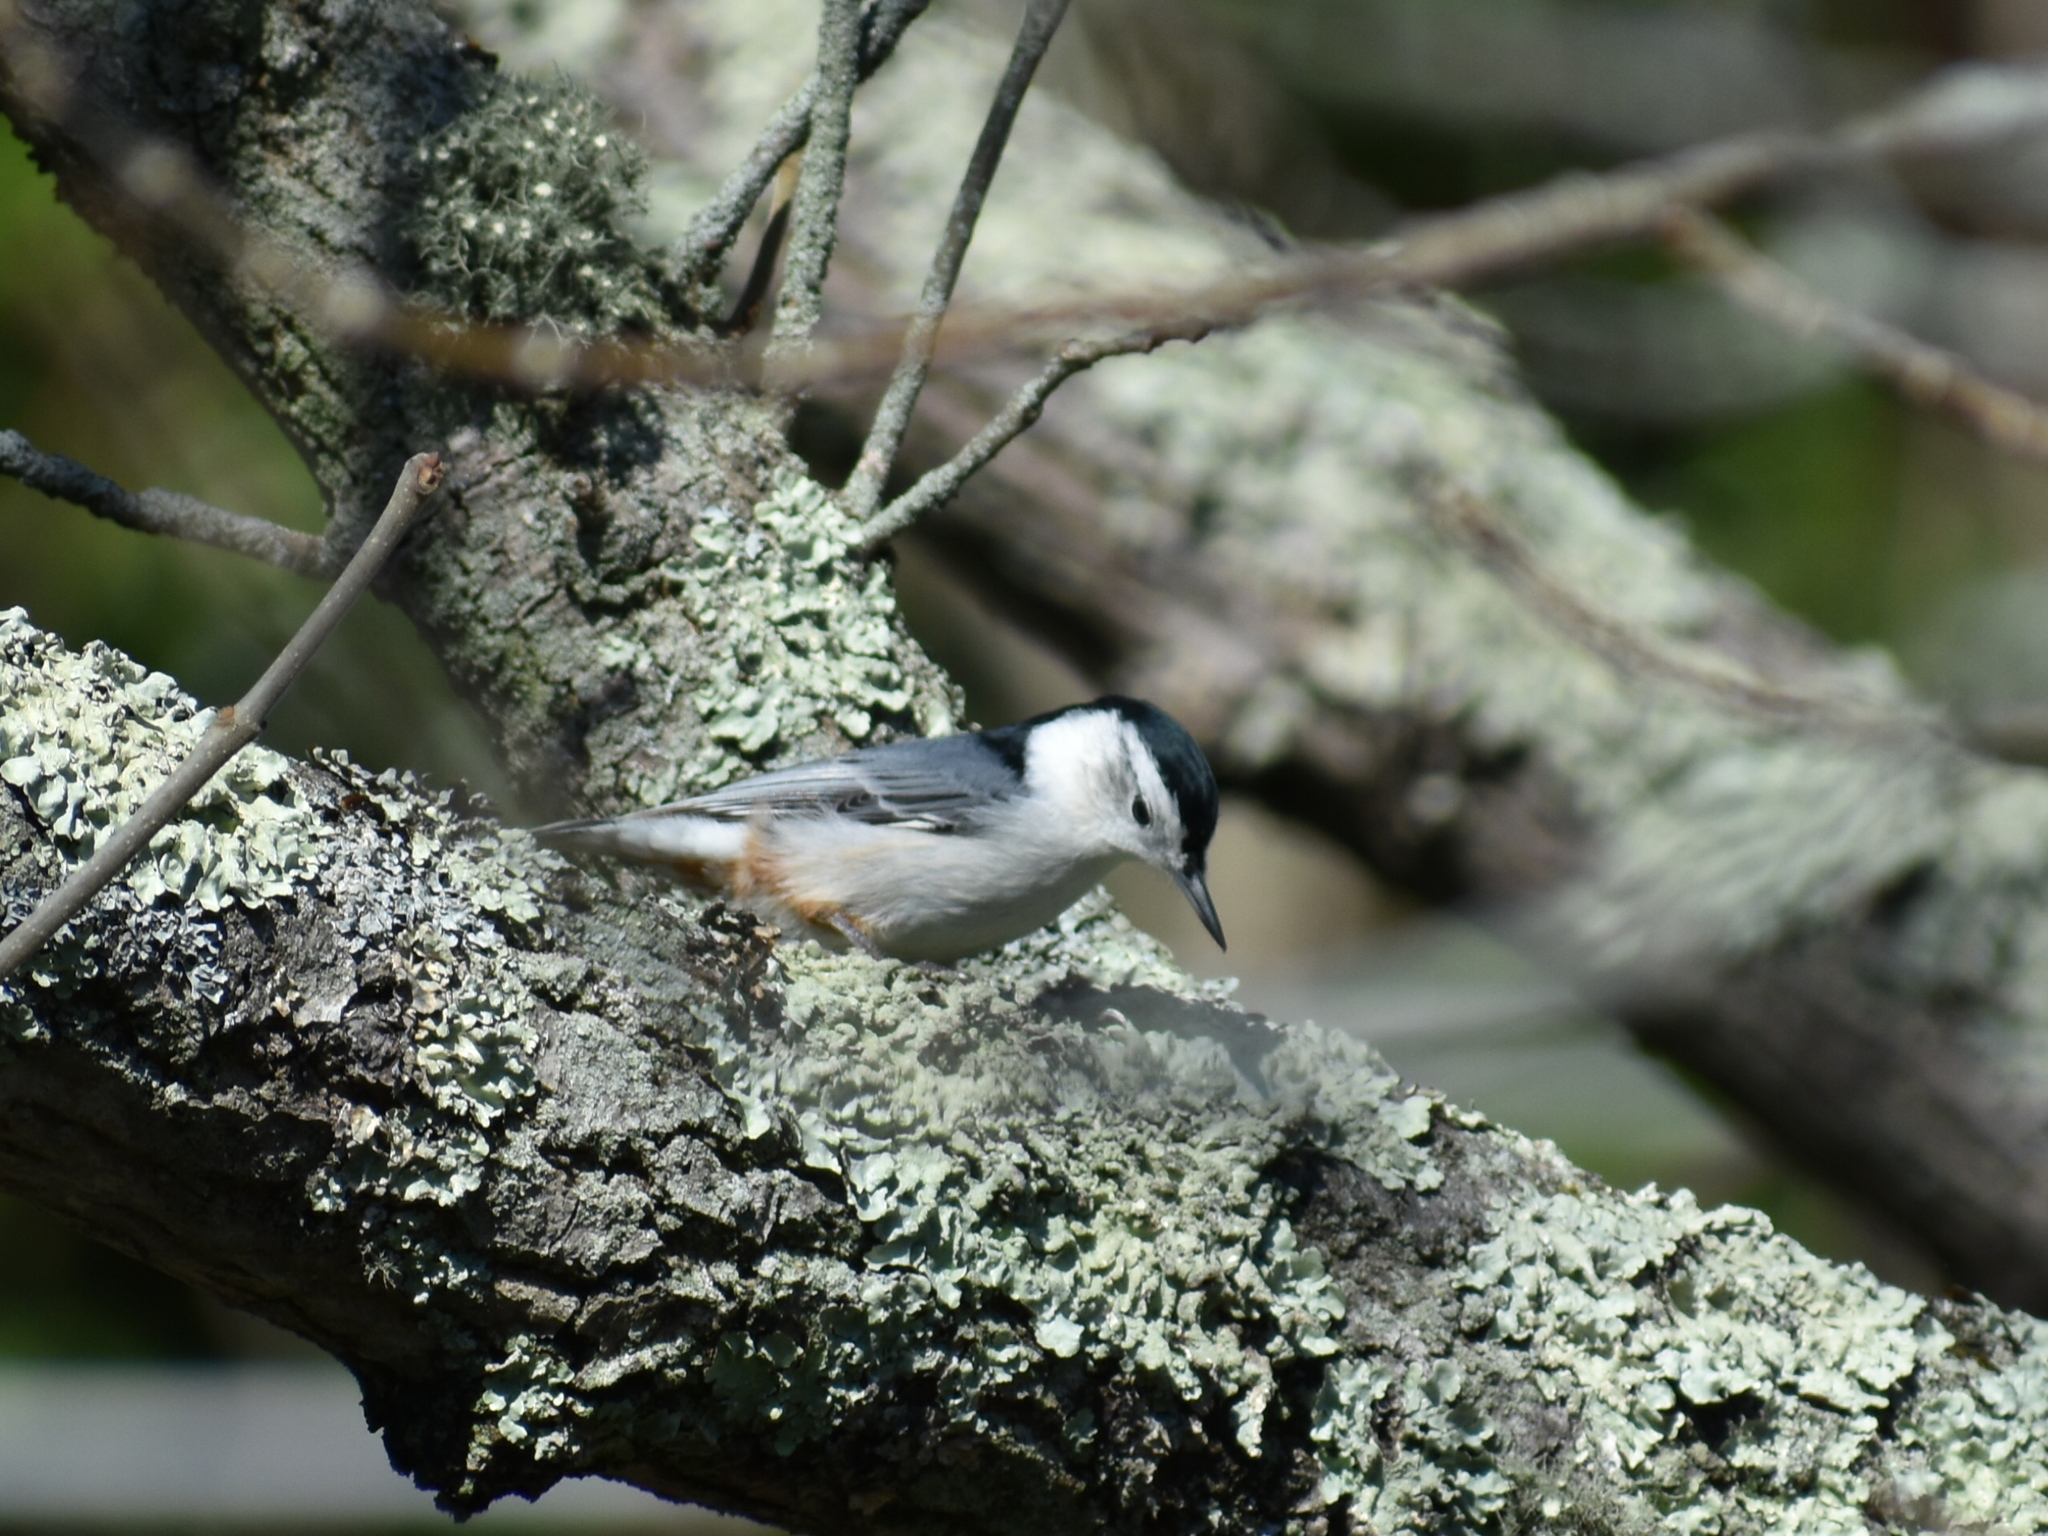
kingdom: Animalia
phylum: Chordata
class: Aves
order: Passeriformes
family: Sittidae
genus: Sitta
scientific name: Sitta carolinensis
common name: White-breasted nuthatch
